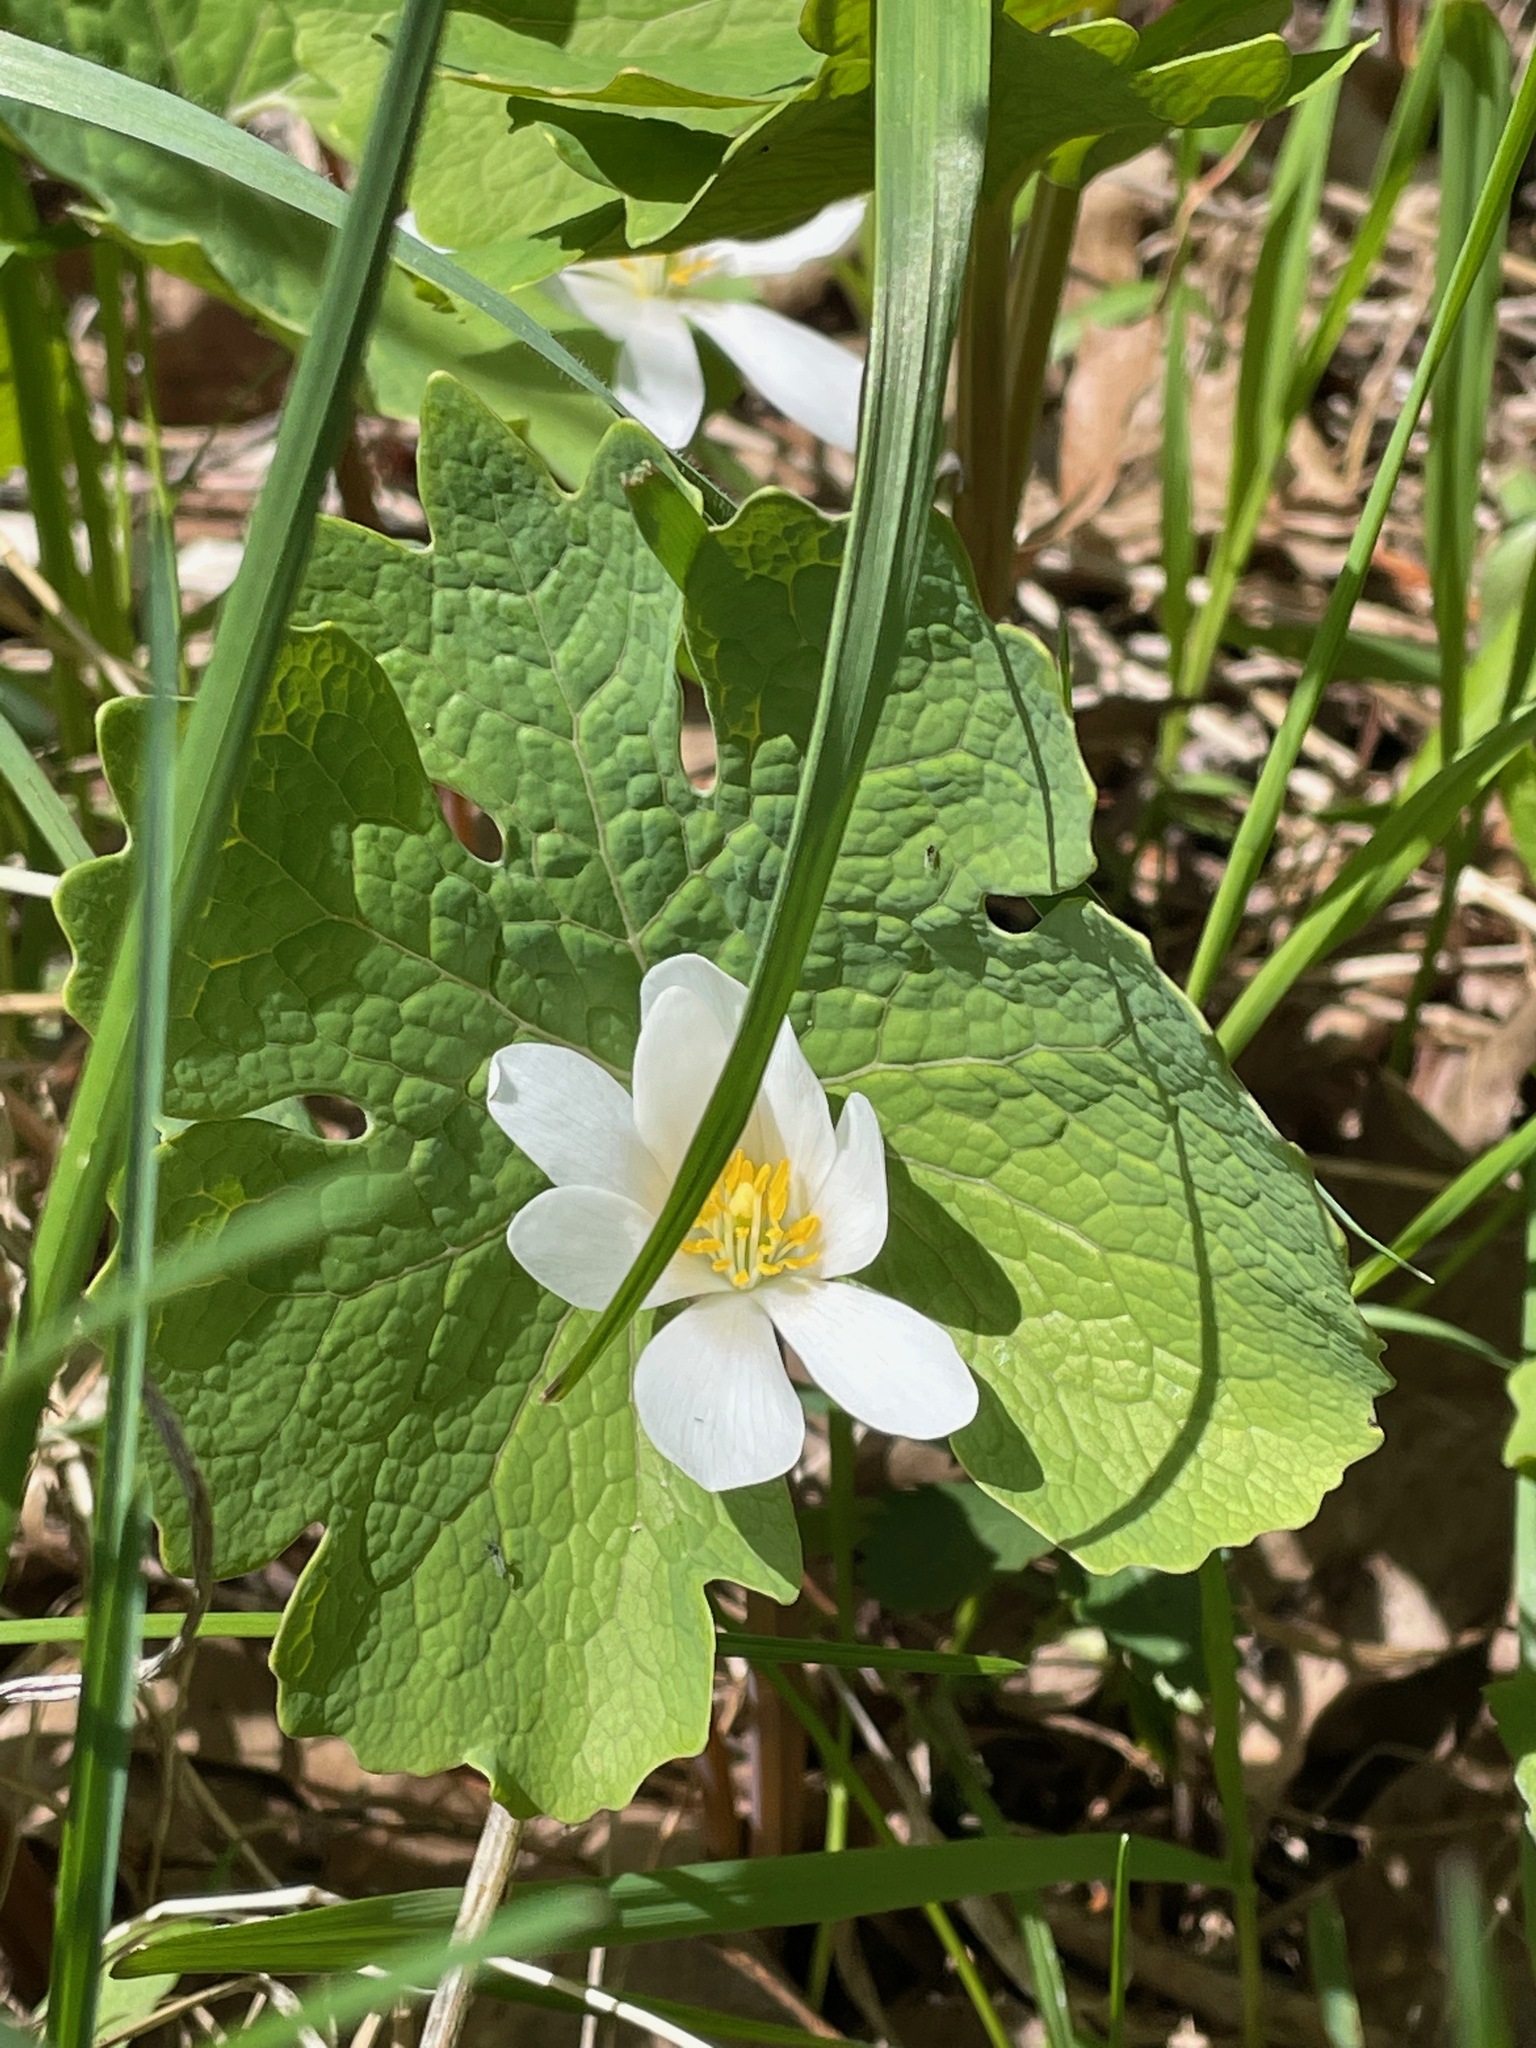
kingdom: Plantae
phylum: Tracheophyta
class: Magnoliopsida
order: Ranunculales
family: Papaveraceae
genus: Sanguinaria
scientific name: Sanguinaria canadensis
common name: Bloodroot
